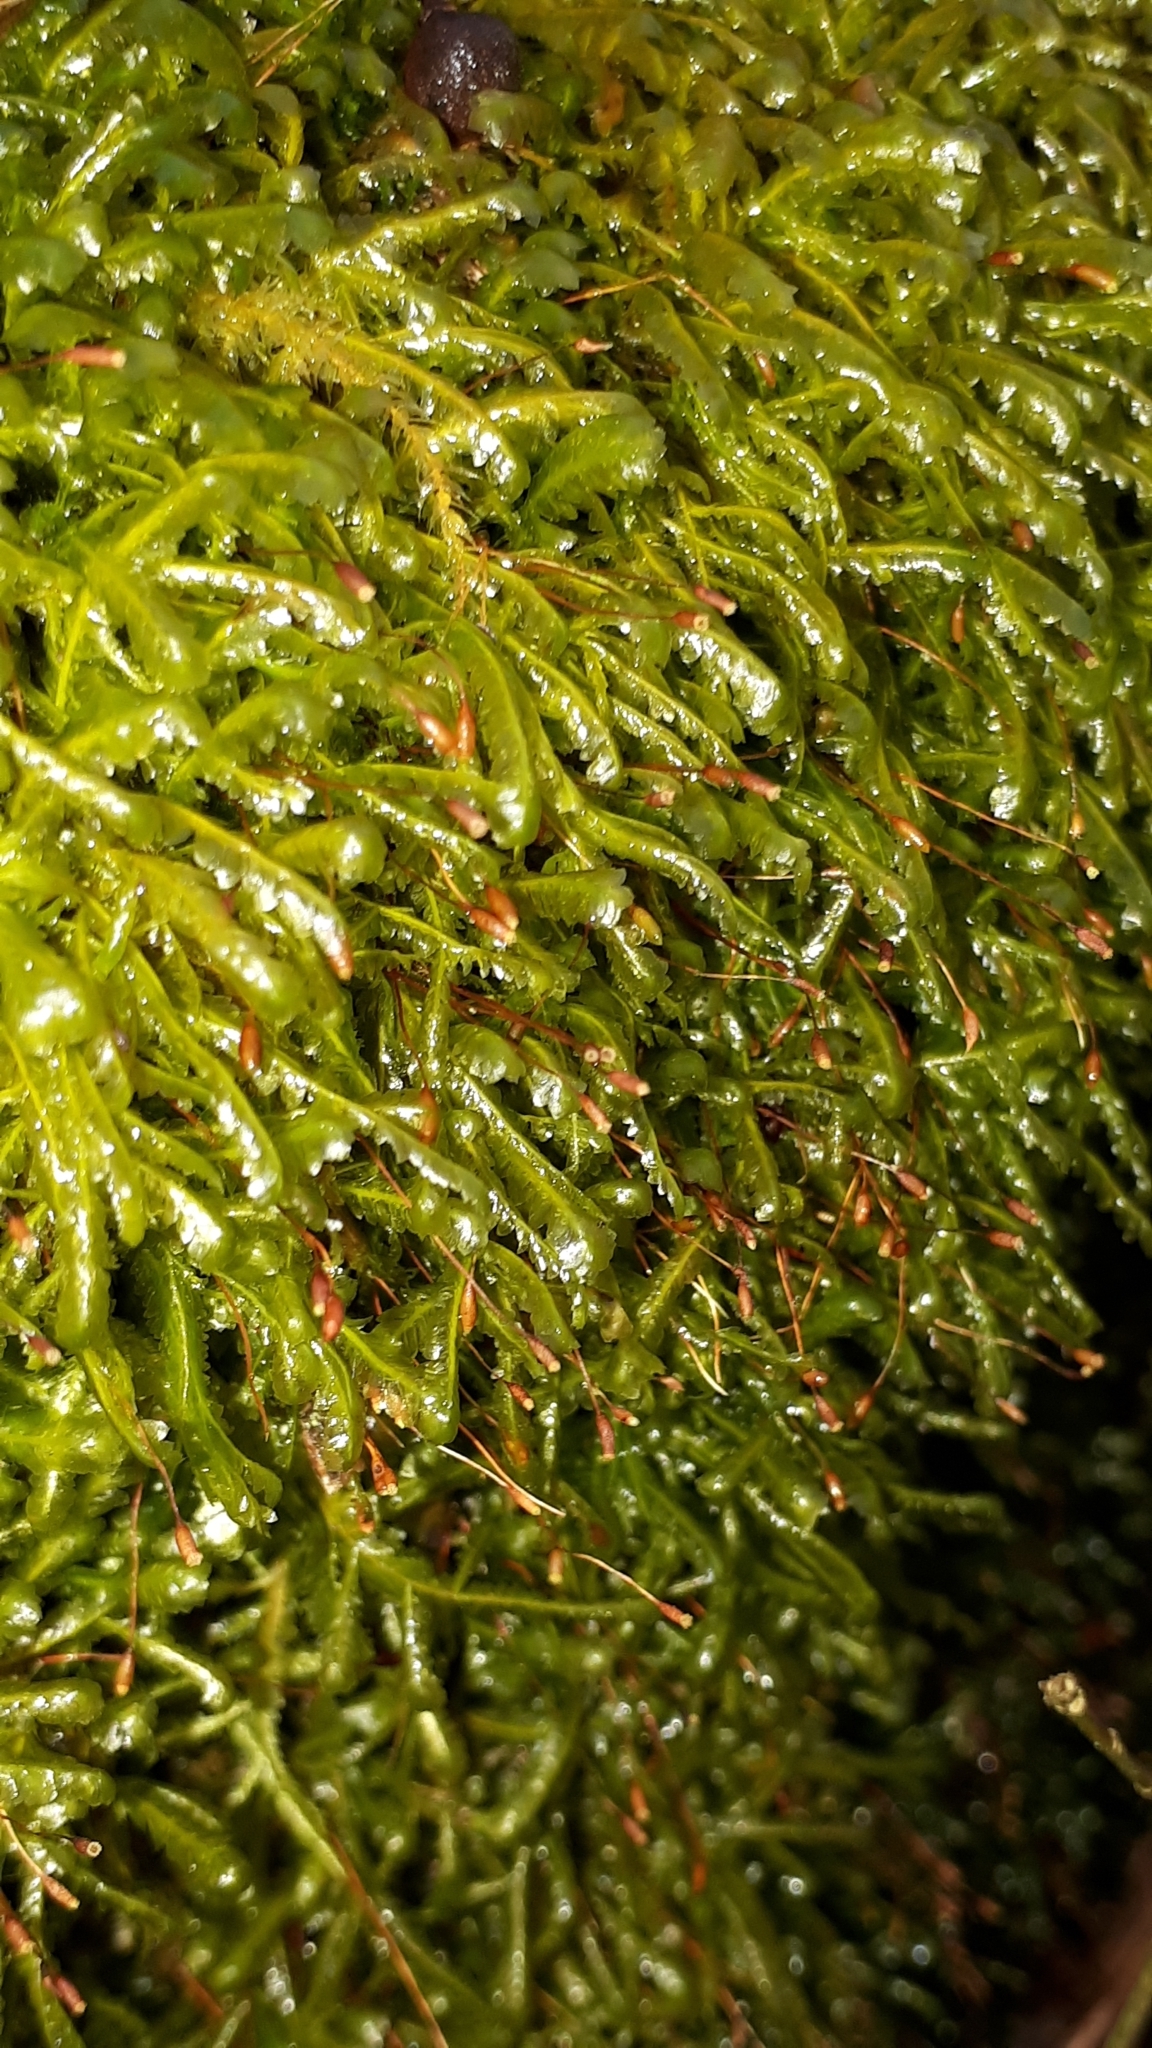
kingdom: Plantae
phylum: Bryophyta
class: Bryopsida
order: Hypnales
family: Neckeraceae
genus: Homalia
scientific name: Homalia trichomanoides
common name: Lime homalia moss
